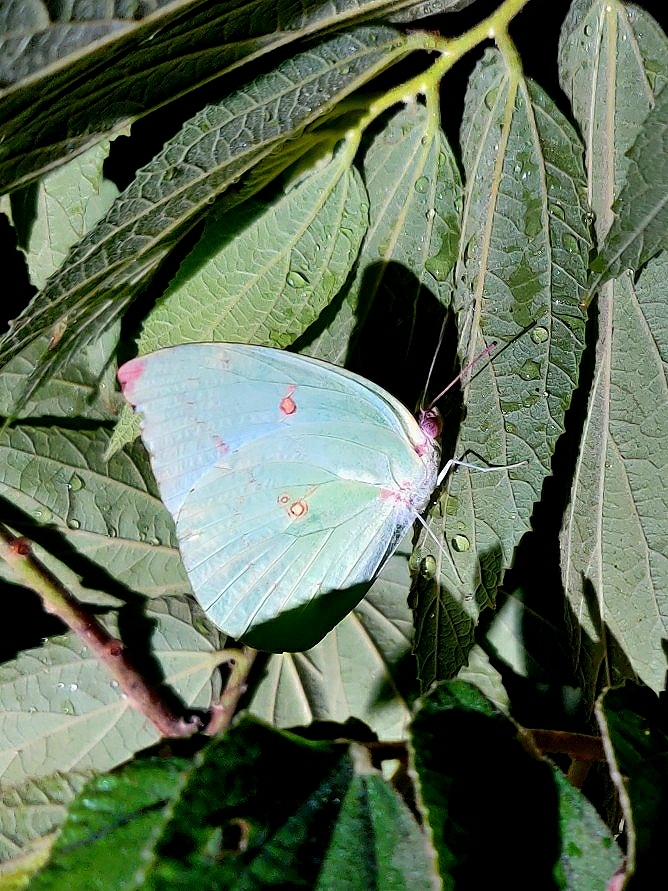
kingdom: Animalia
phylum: Arthropoda
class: Insecta
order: Lepidoptera
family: Pieridae
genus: Catopsilia
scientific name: Catopsilia pomona
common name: Common emigrant
